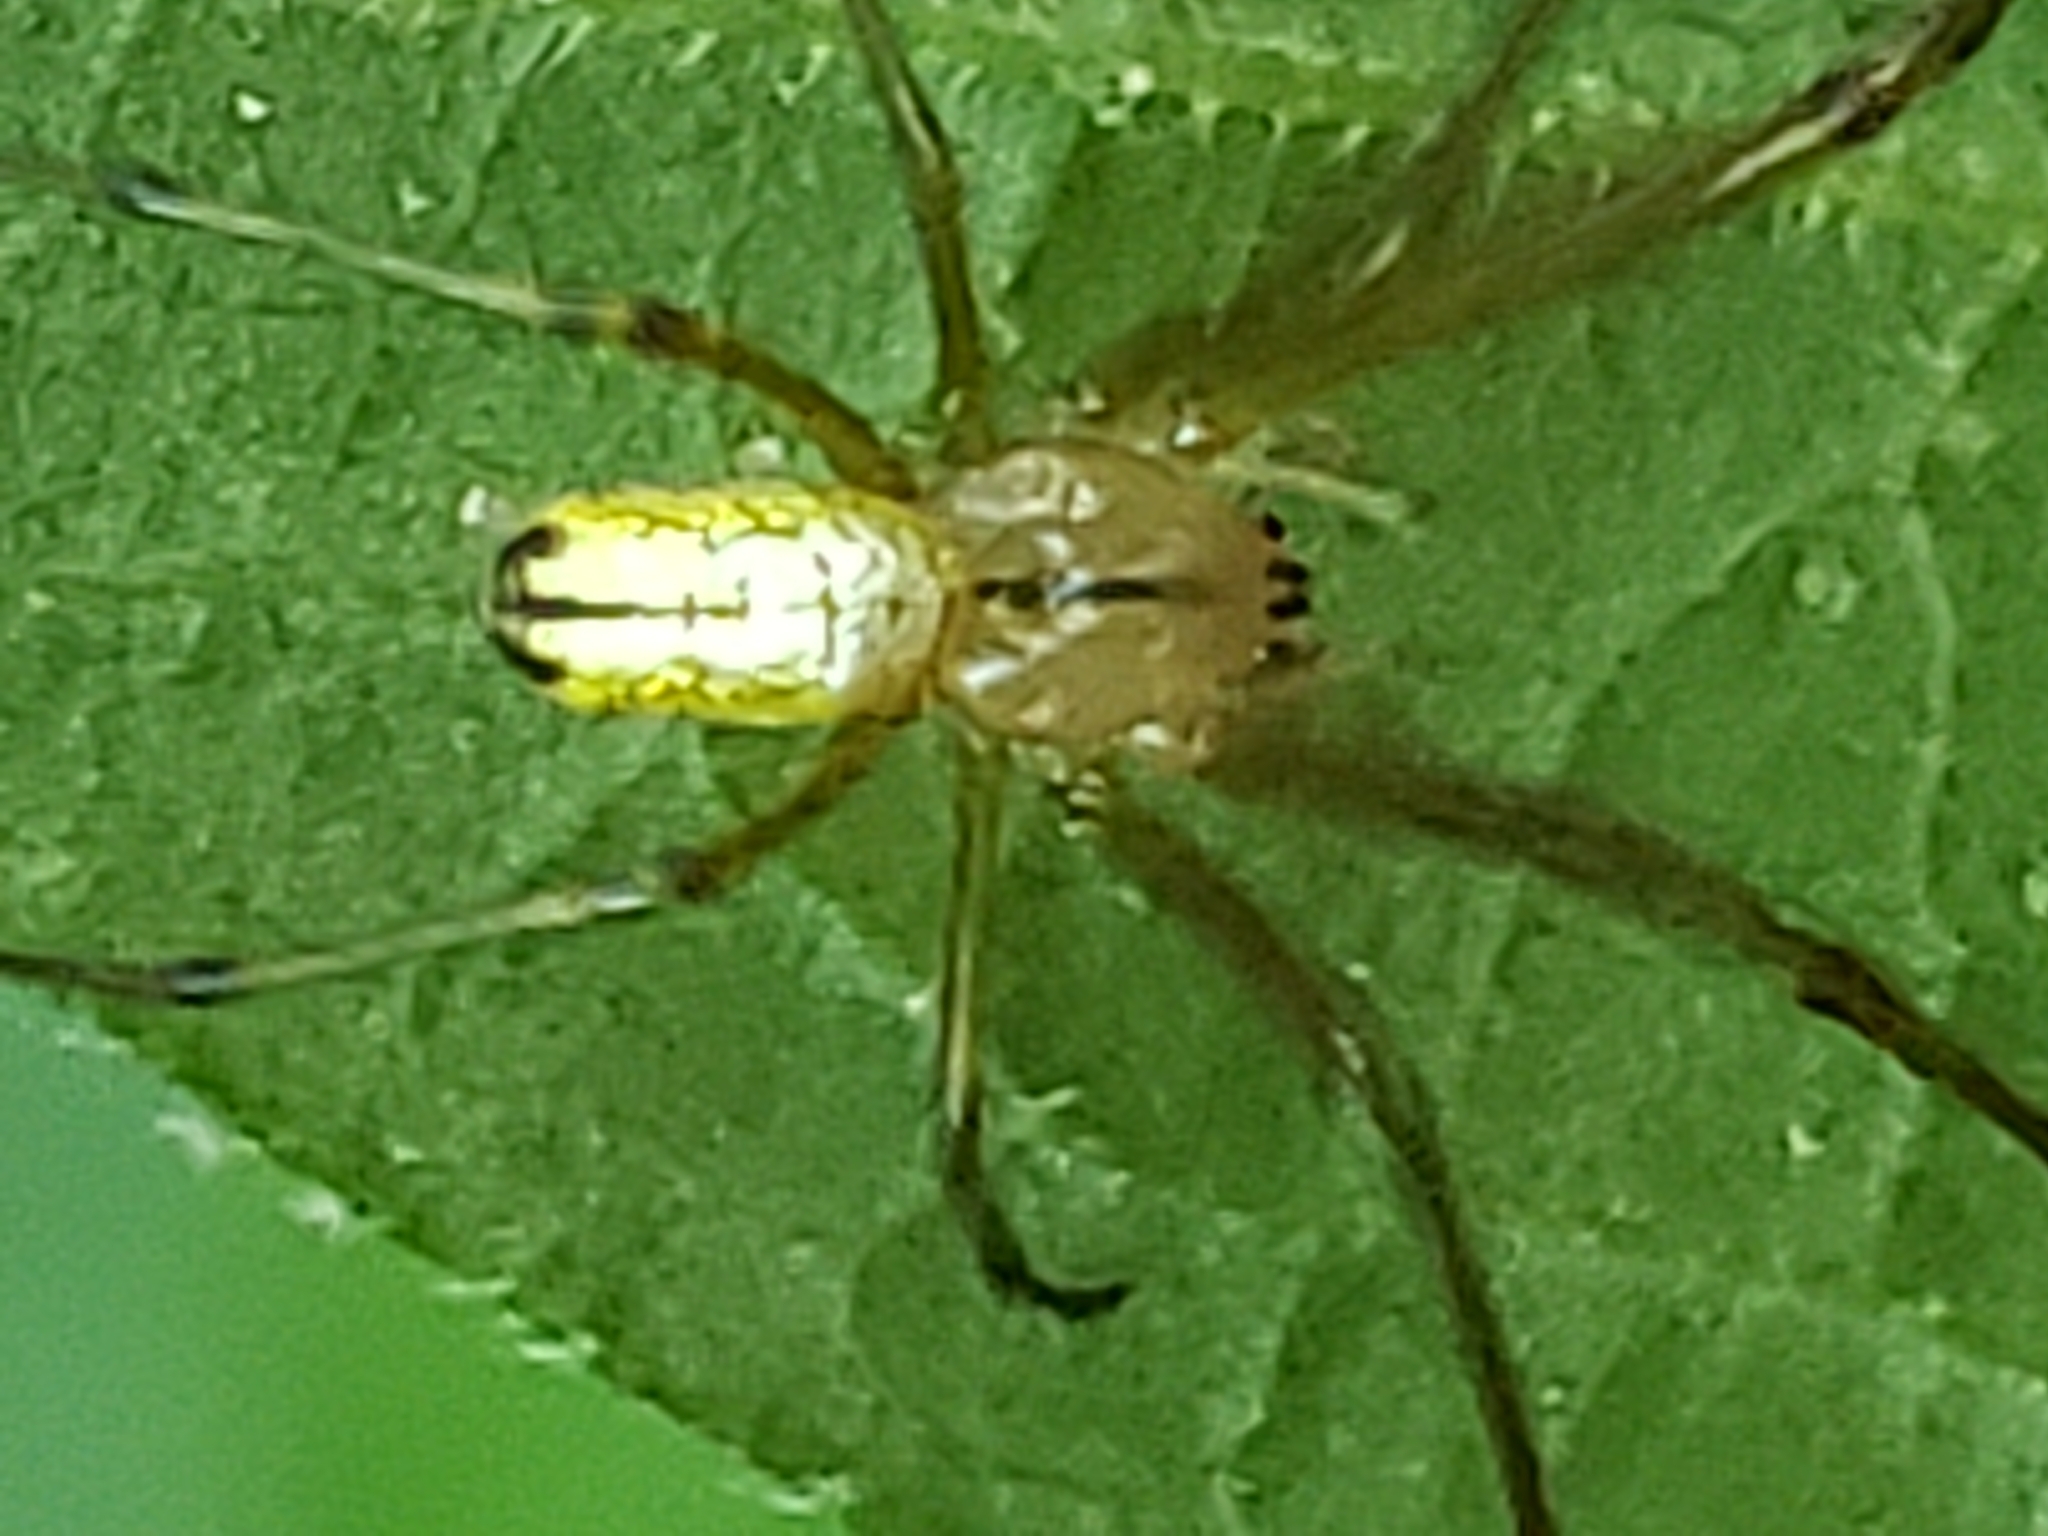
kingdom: Animalia
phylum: Arthropoda
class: Arachnida
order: Araneae
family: Tetragnathidae
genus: Leucauge
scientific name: Leucauge venusta
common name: Longjawed orb weavers
